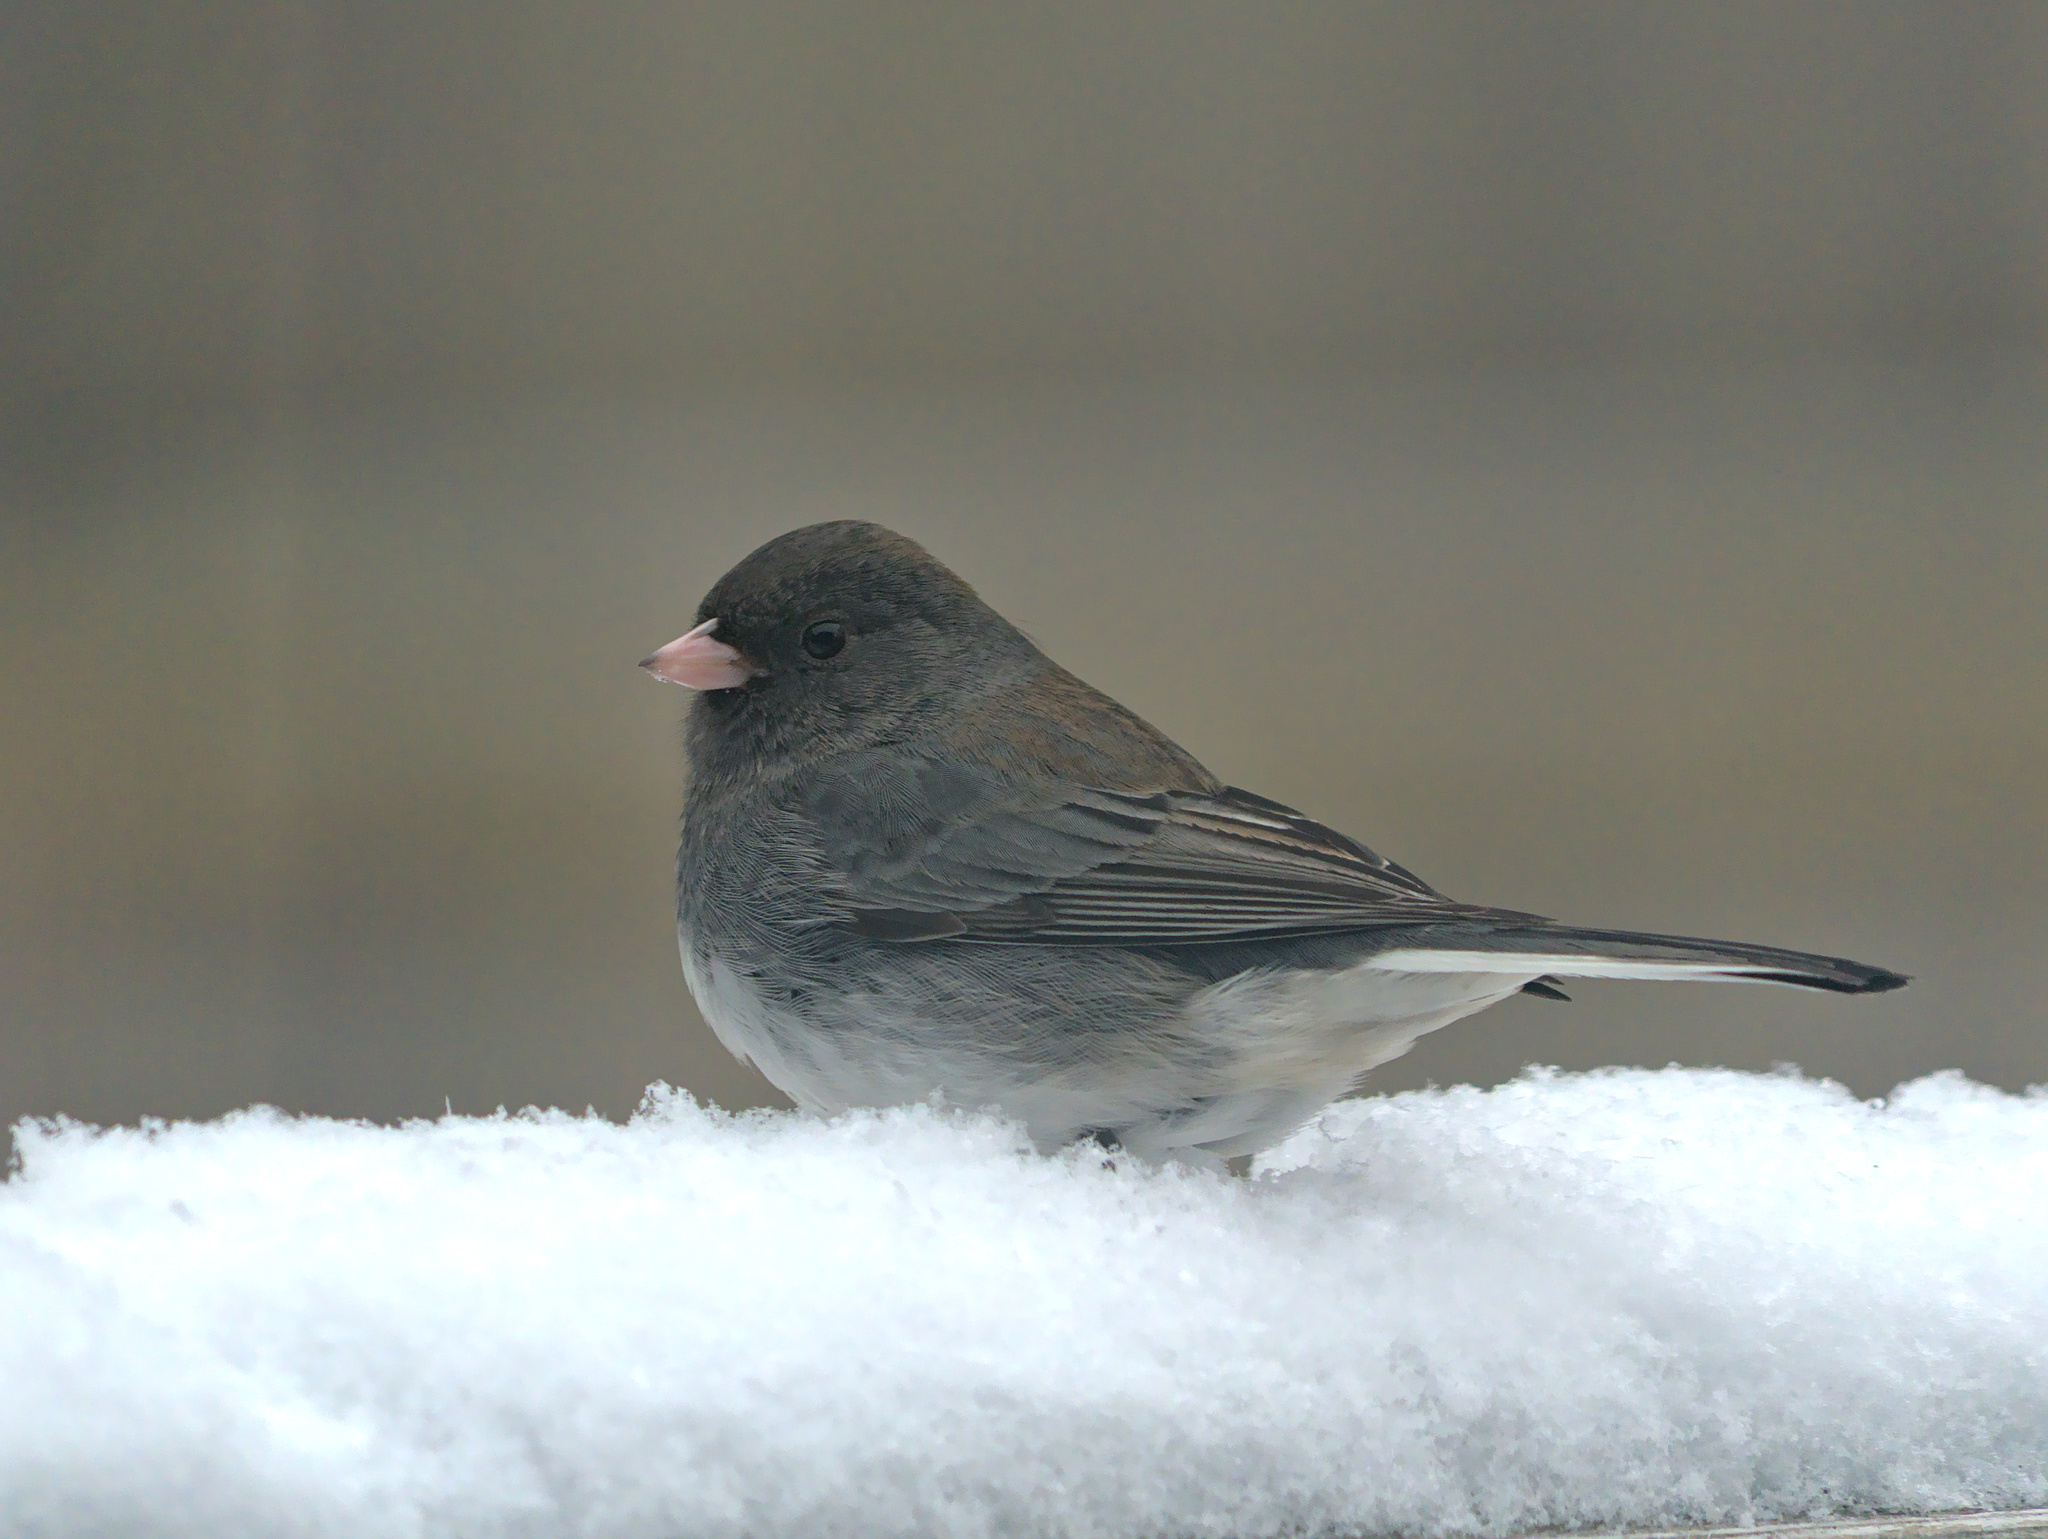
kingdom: Animalia
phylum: Chordata
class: Aves
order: Passeriformes
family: Passerellidae
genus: Junco
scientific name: Junco hyemalis
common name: Dark-eyed junco
